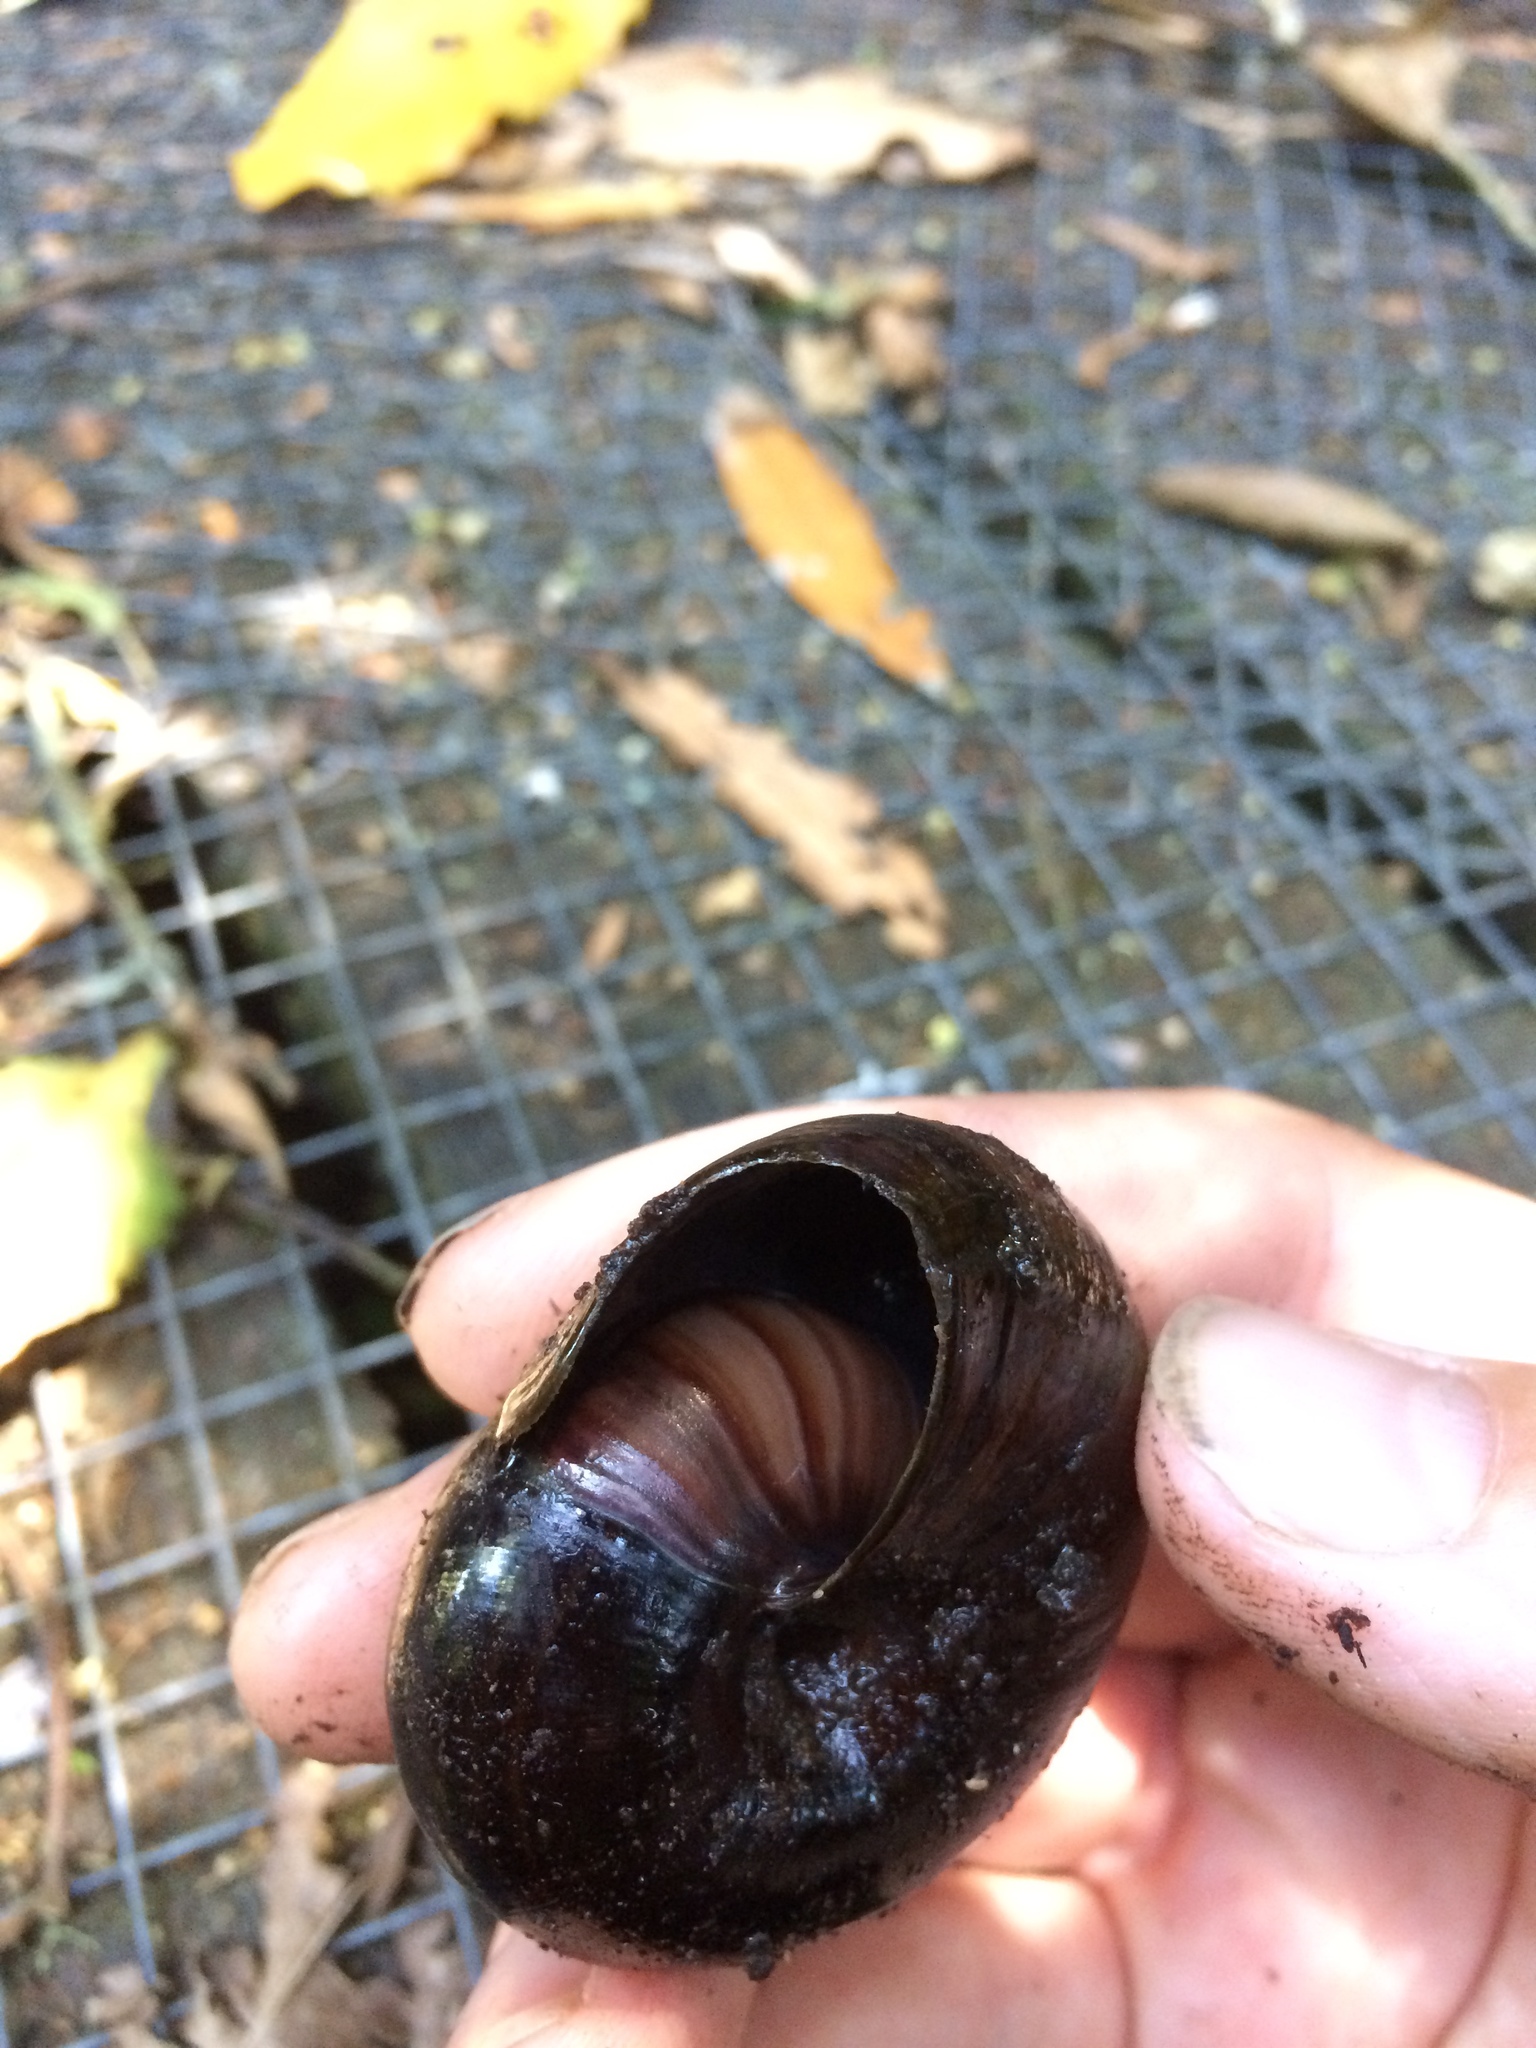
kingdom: Animalia
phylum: Mollusca
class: Gastropoda
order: Stylommatophora
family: Rhytididae
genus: Powelliphanta
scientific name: Powelliphanta traversi
